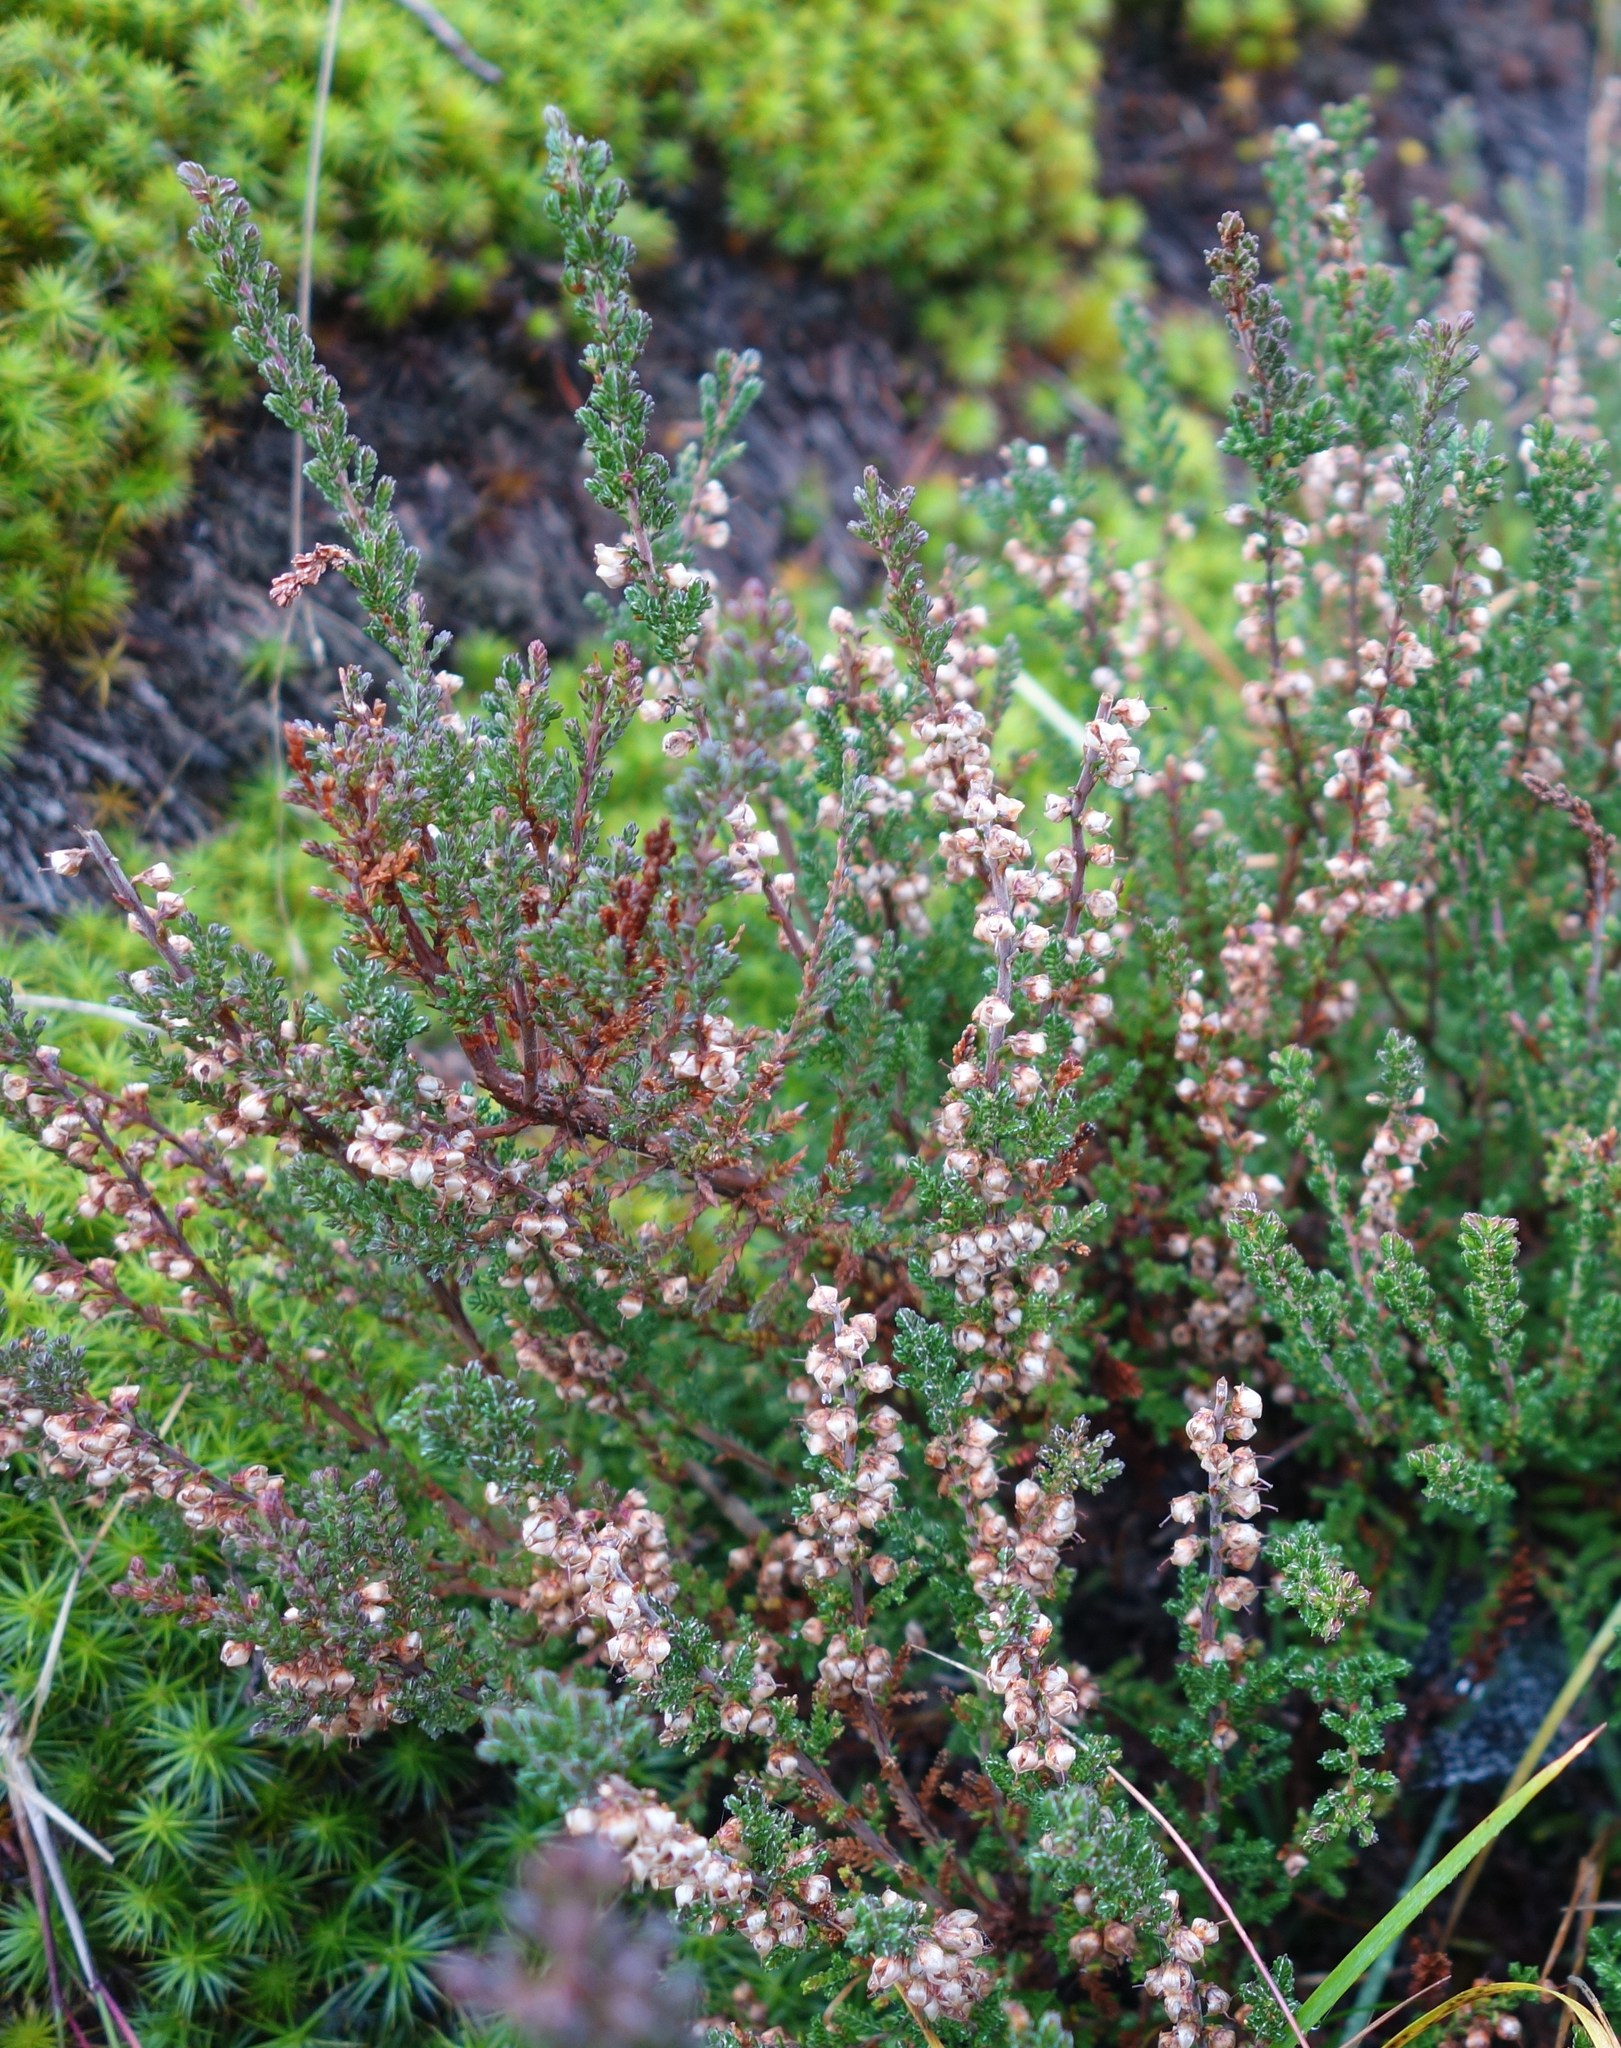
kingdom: Plantae
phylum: Tracheophyta
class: Magnoliopsida
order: Ericales
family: Ericaceae
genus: Calluna
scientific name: Calluna vulgaris
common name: Heather
